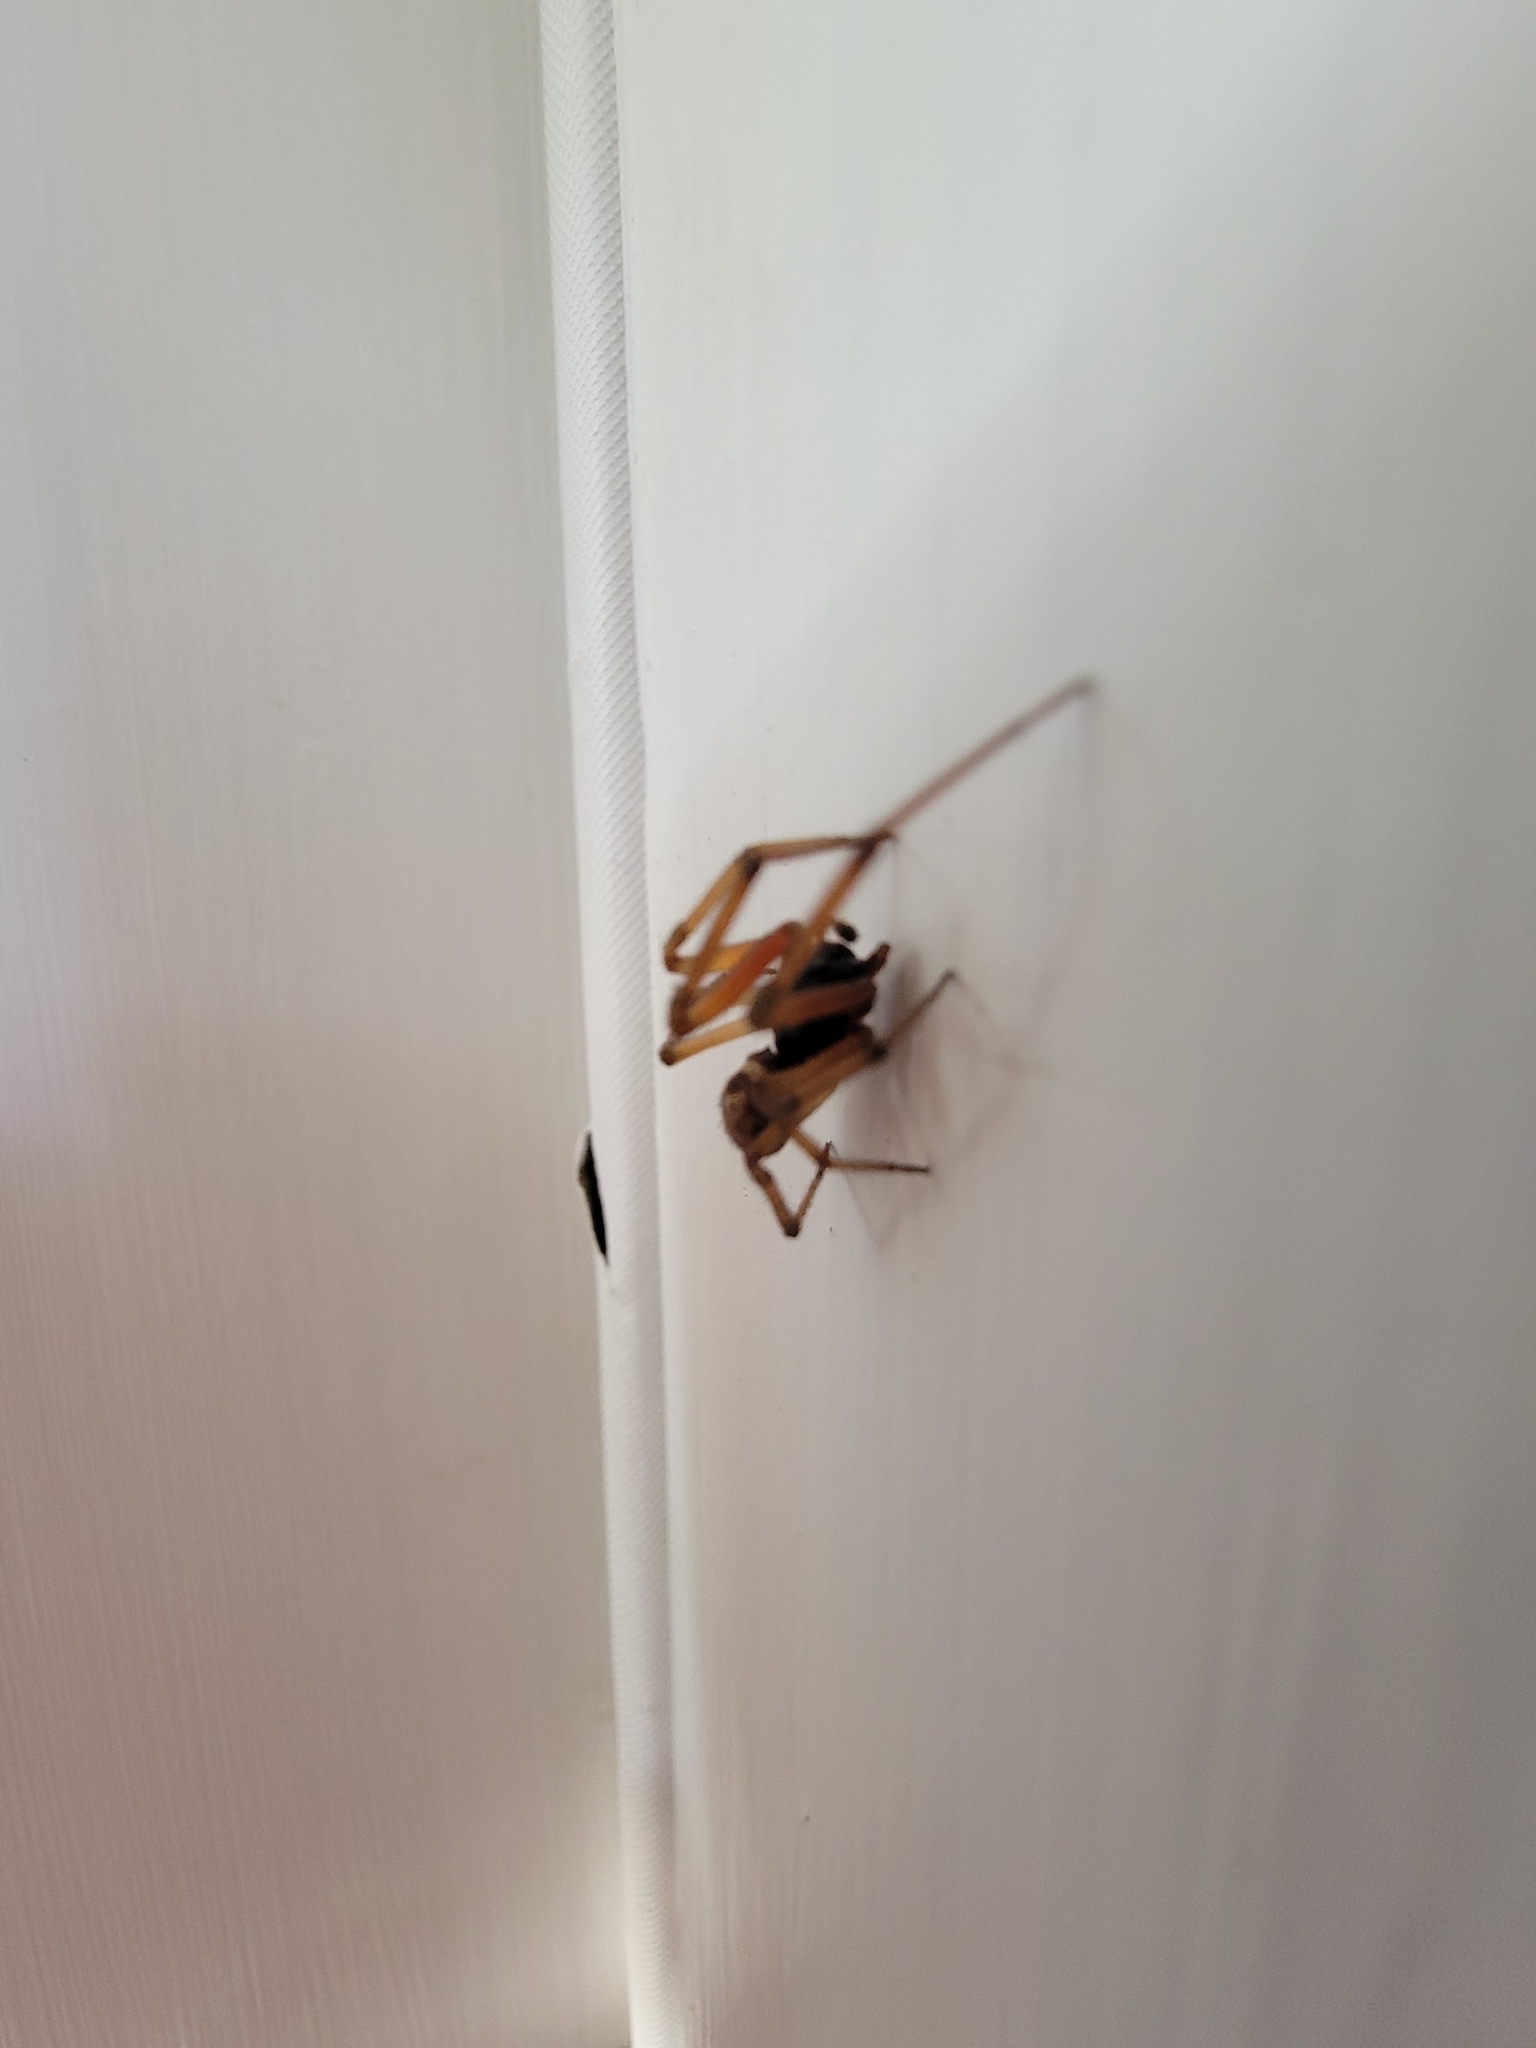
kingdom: Animalia
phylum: Arthropoda
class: Arachnida
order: Araneae
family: Theridiidae
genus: Steatoda
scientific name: Steatoda nobilis
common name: Cobweb weaver
